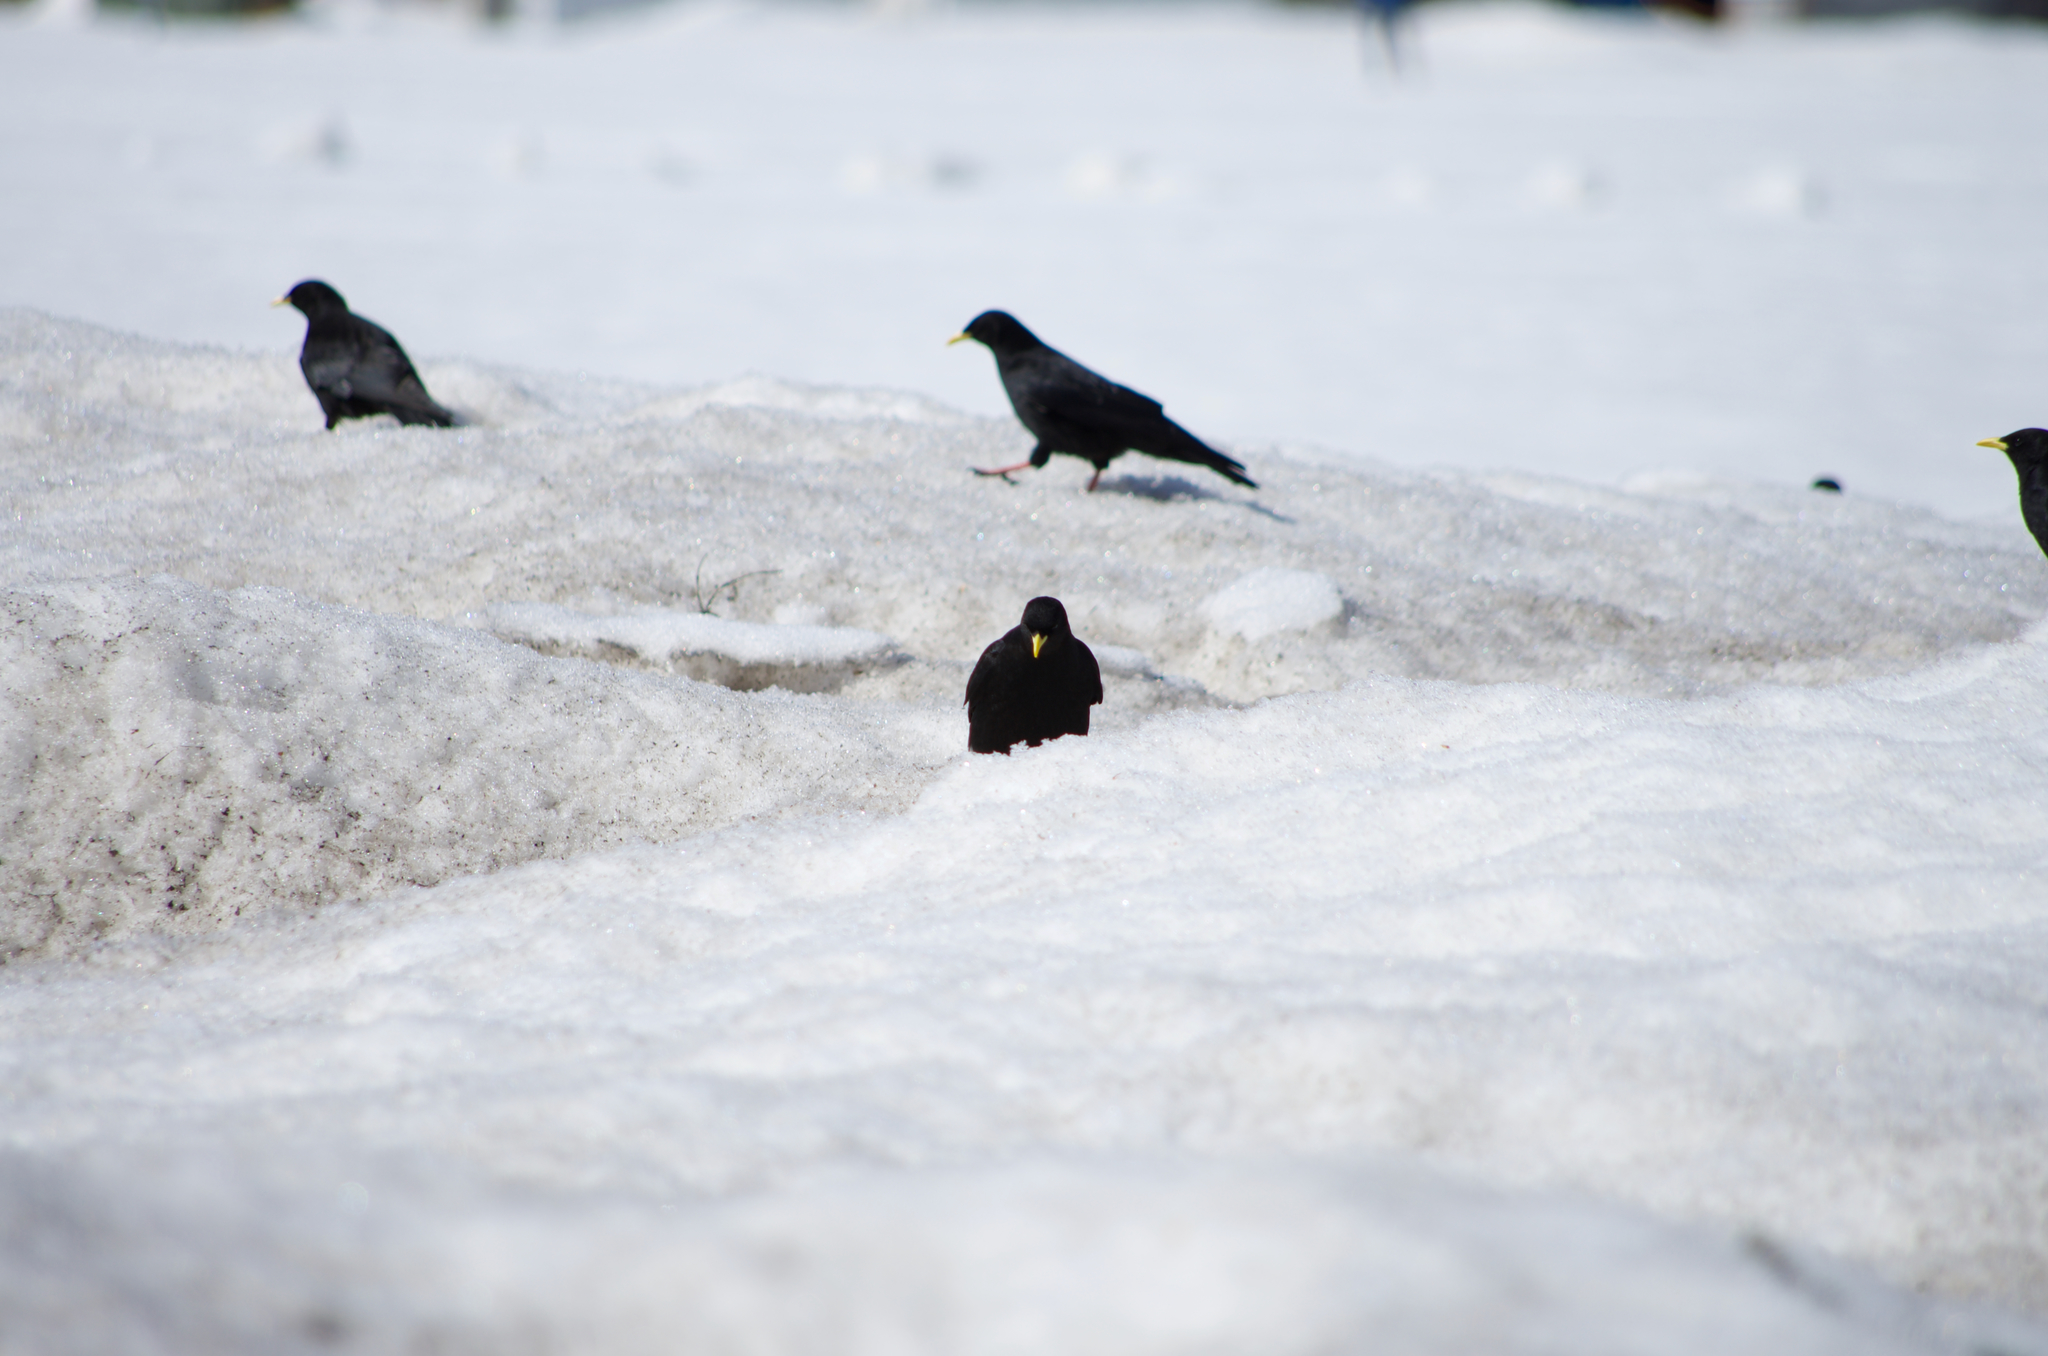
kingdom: Animalia
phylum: Chordata
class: Aves
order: Passeriformes
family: Corvidae
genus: Pyrrhocorax
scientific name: Pyrrhocorax graculus
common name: Alpine chough
